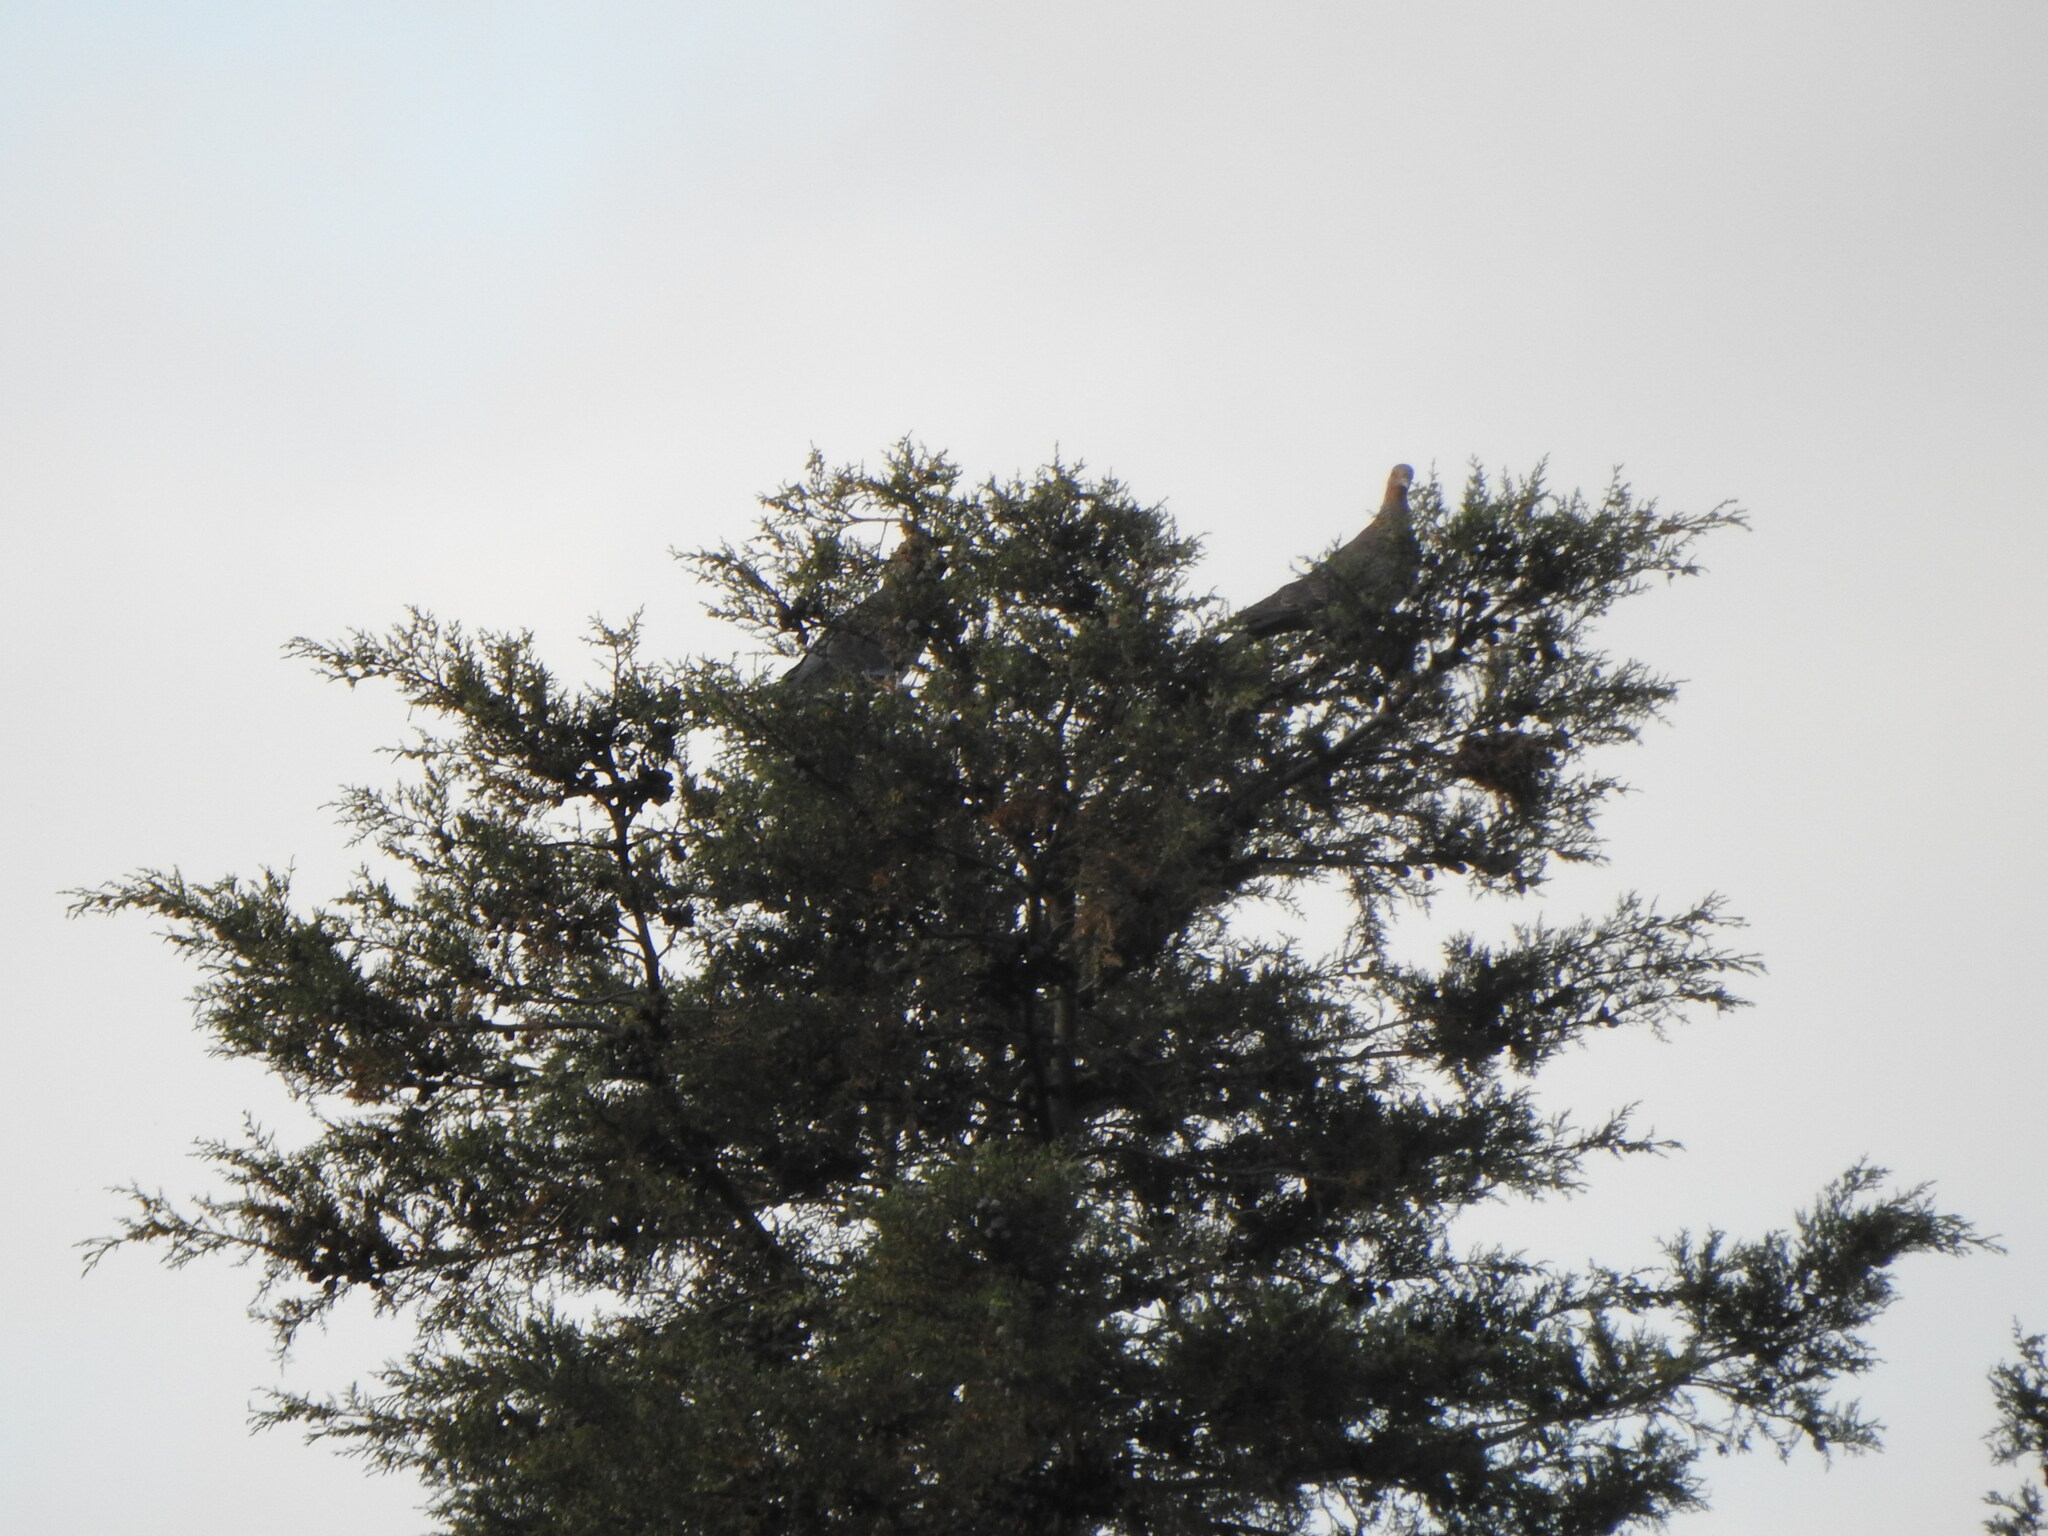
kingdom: Animalia
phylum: Chordata
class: Aves
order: Columbiformes
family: Columbidae
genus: Patagioenas
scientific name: Patagioenas picazuro
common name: Picazuro pigeon
